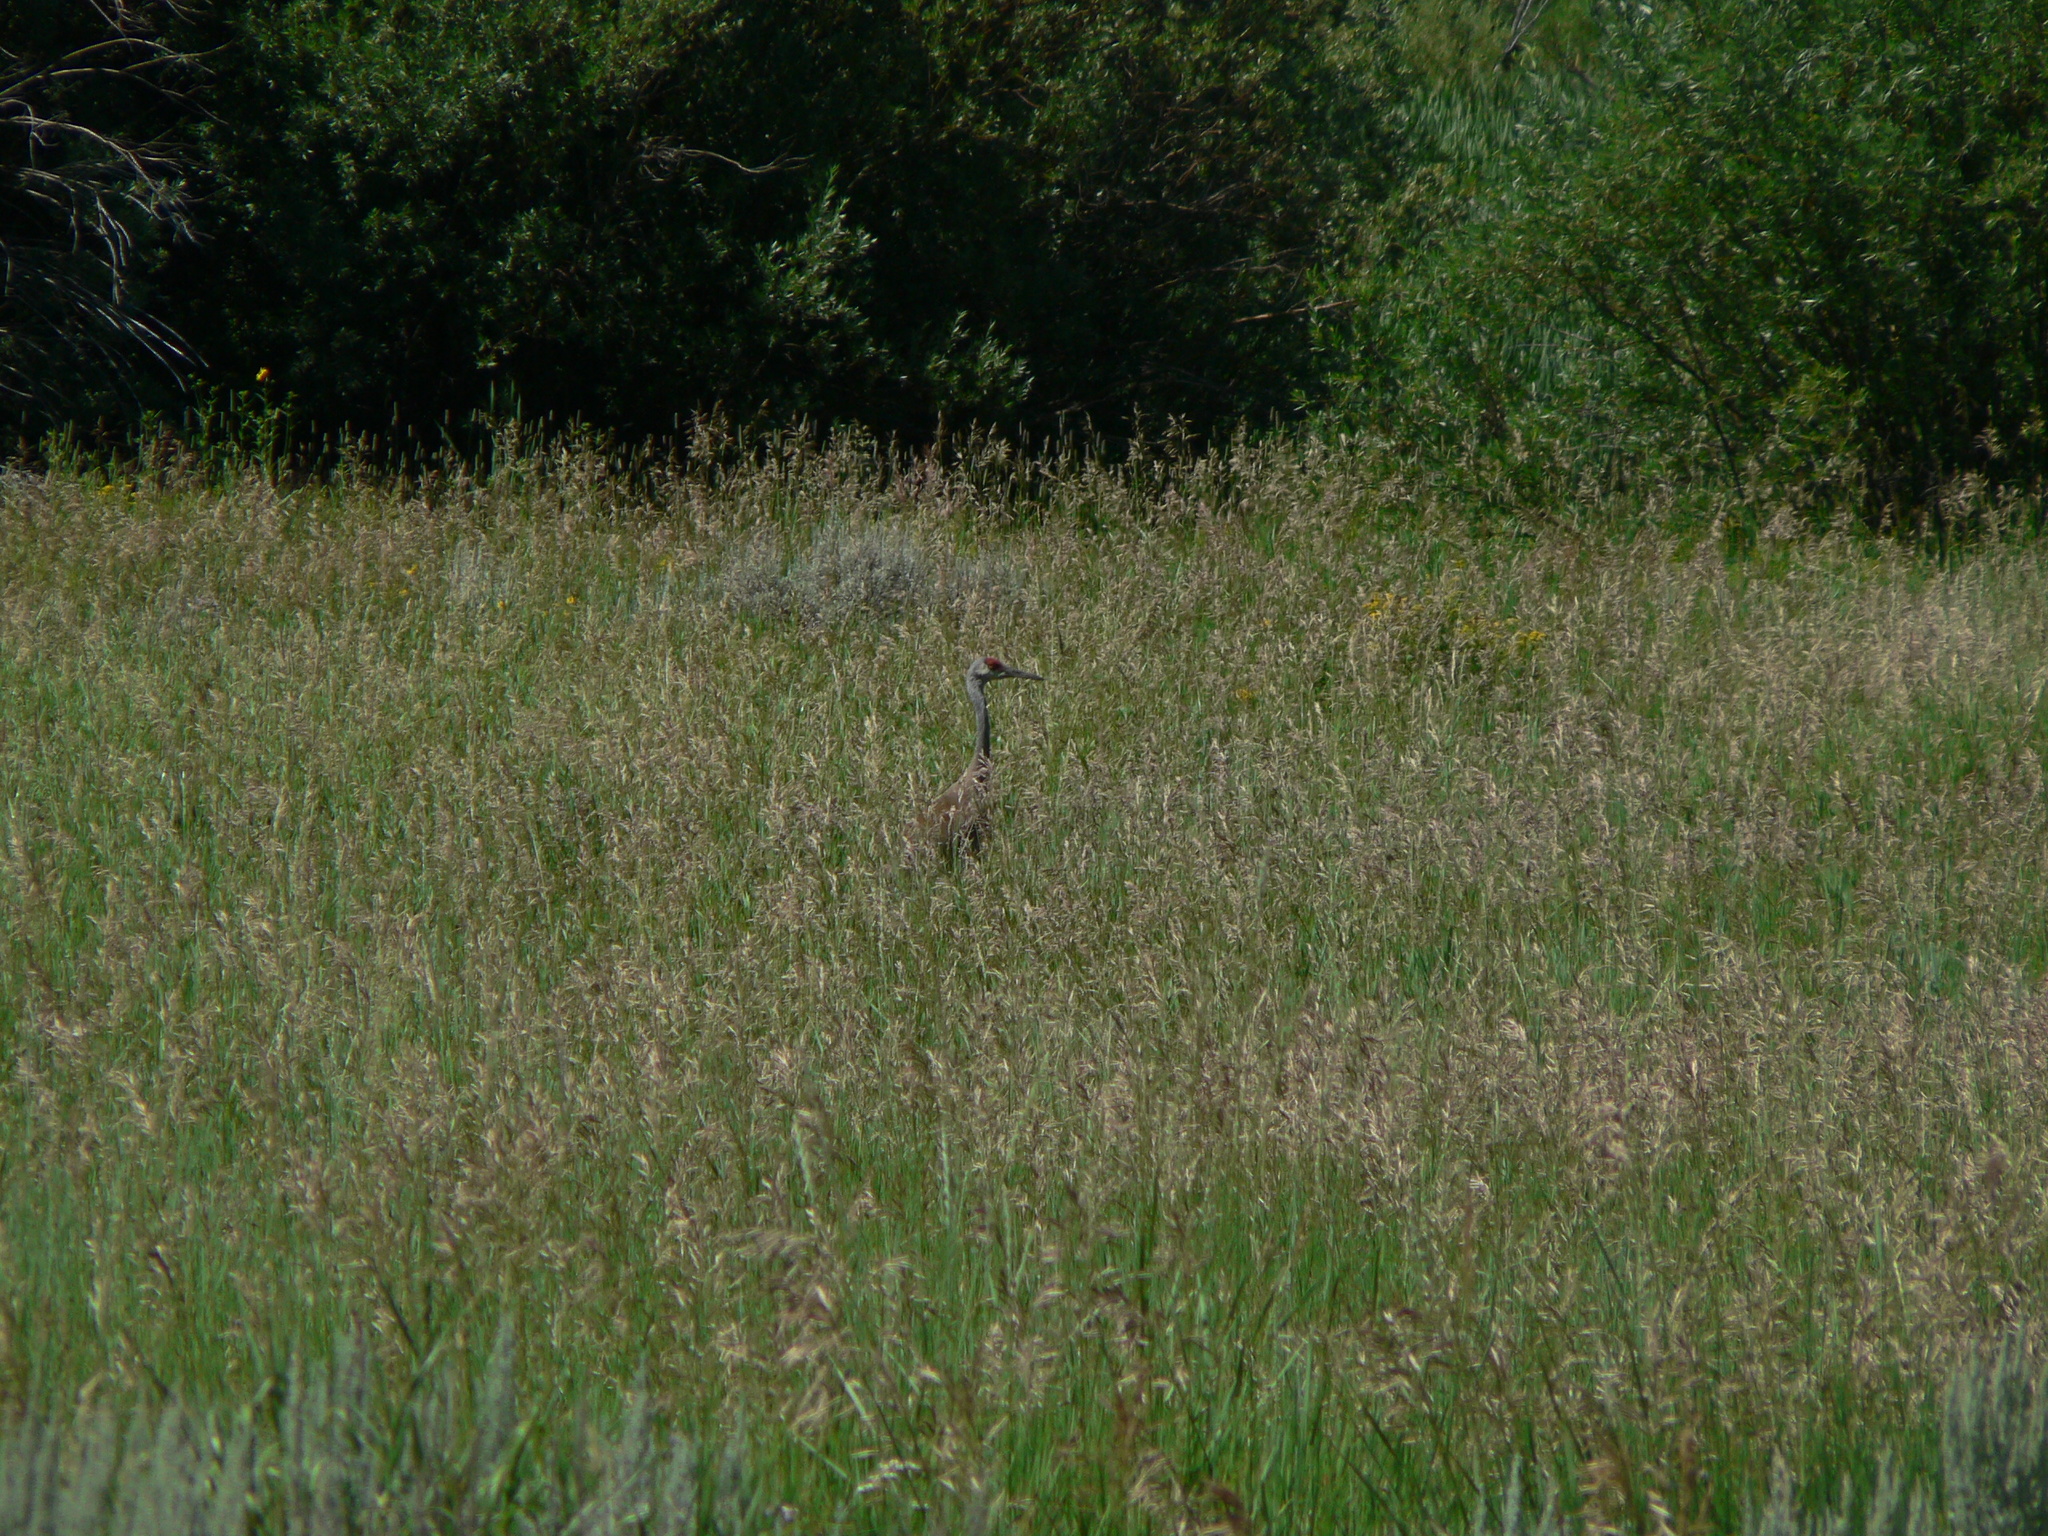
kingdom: Animalia
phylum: Chordata
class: Aves
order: Gruiformes
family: Gruidae
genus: Grus
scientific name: Grus canadensis
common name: Sandhill crane
